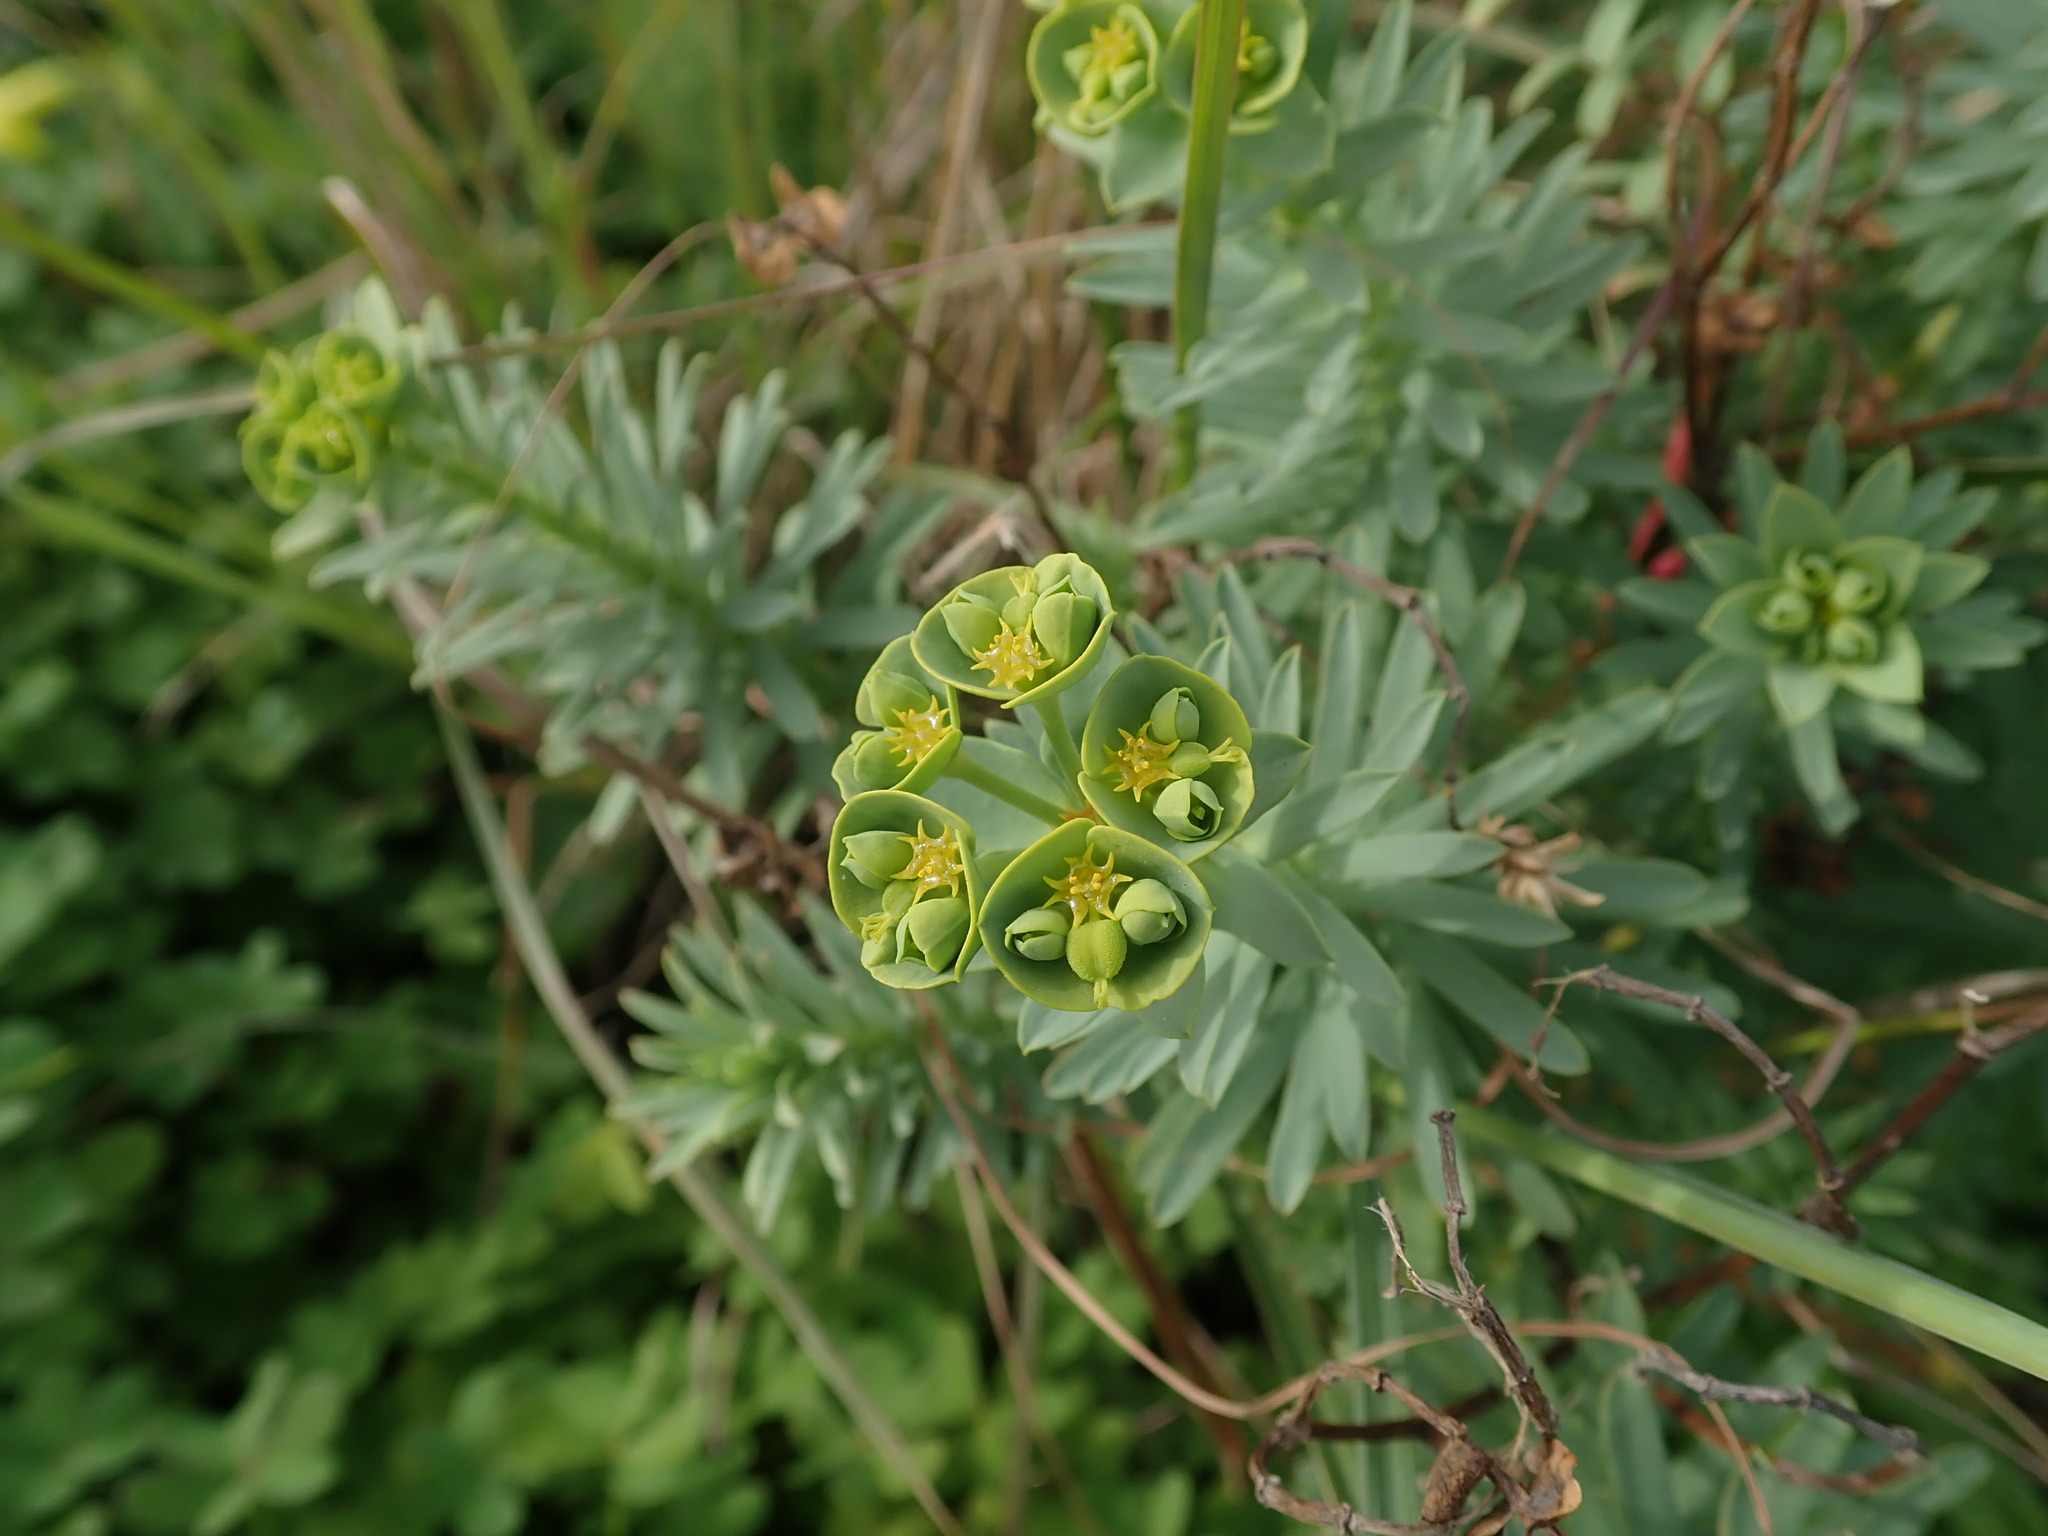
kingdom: Plantae
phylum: Tracheophyta
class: Magnoliopsida
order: Malpighiales
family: Euphorbiaceae
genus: Euphorbia
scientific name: Euphorbia segetalis
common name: Corn spurge
